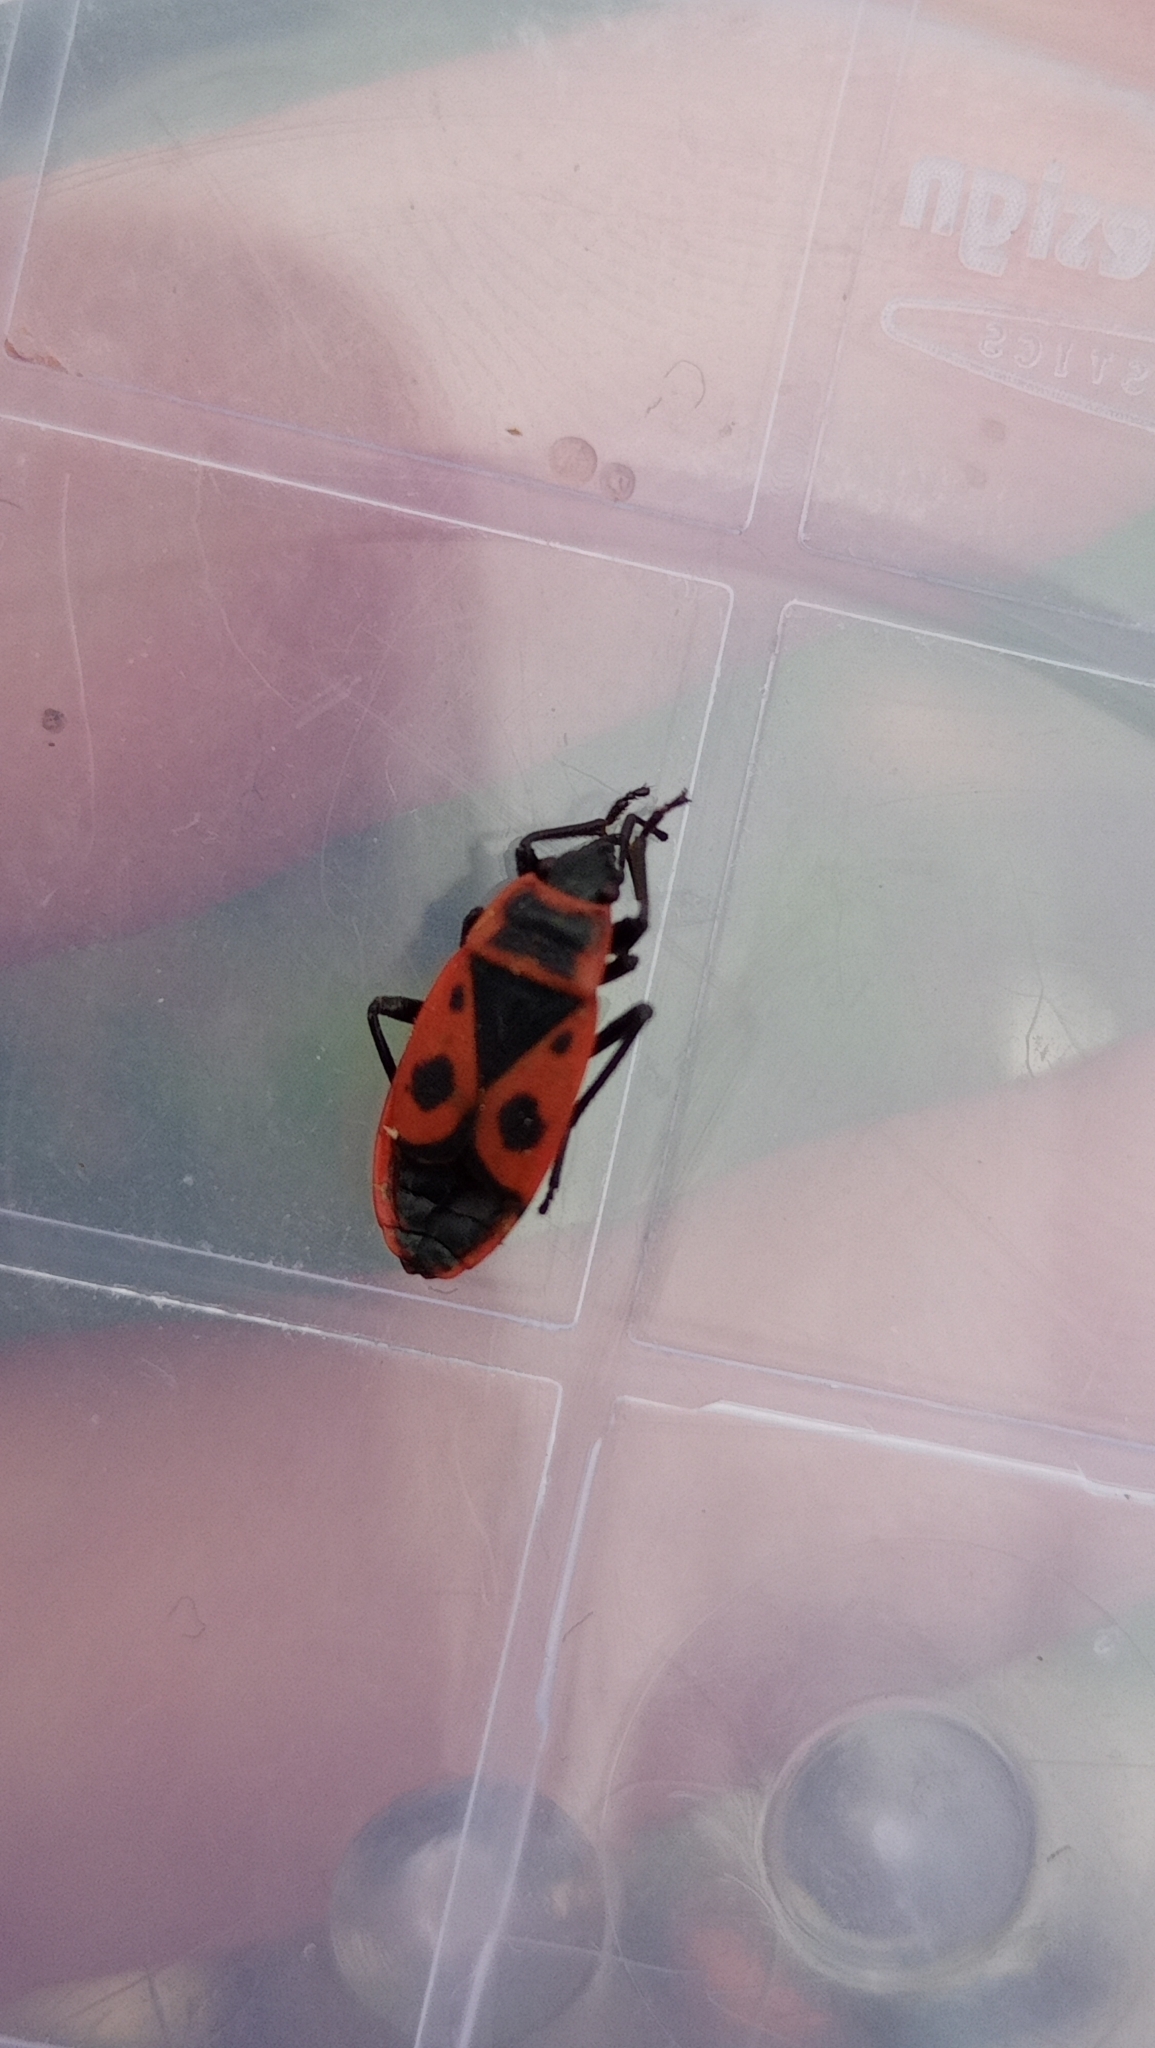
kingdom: Animalia
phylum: Arthropoda
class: Insecta
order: Hemiptera
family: Pyrrhocoridae
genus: Pyrrhocoris
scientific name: Pyrrhocoris apterus
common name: Firebug
